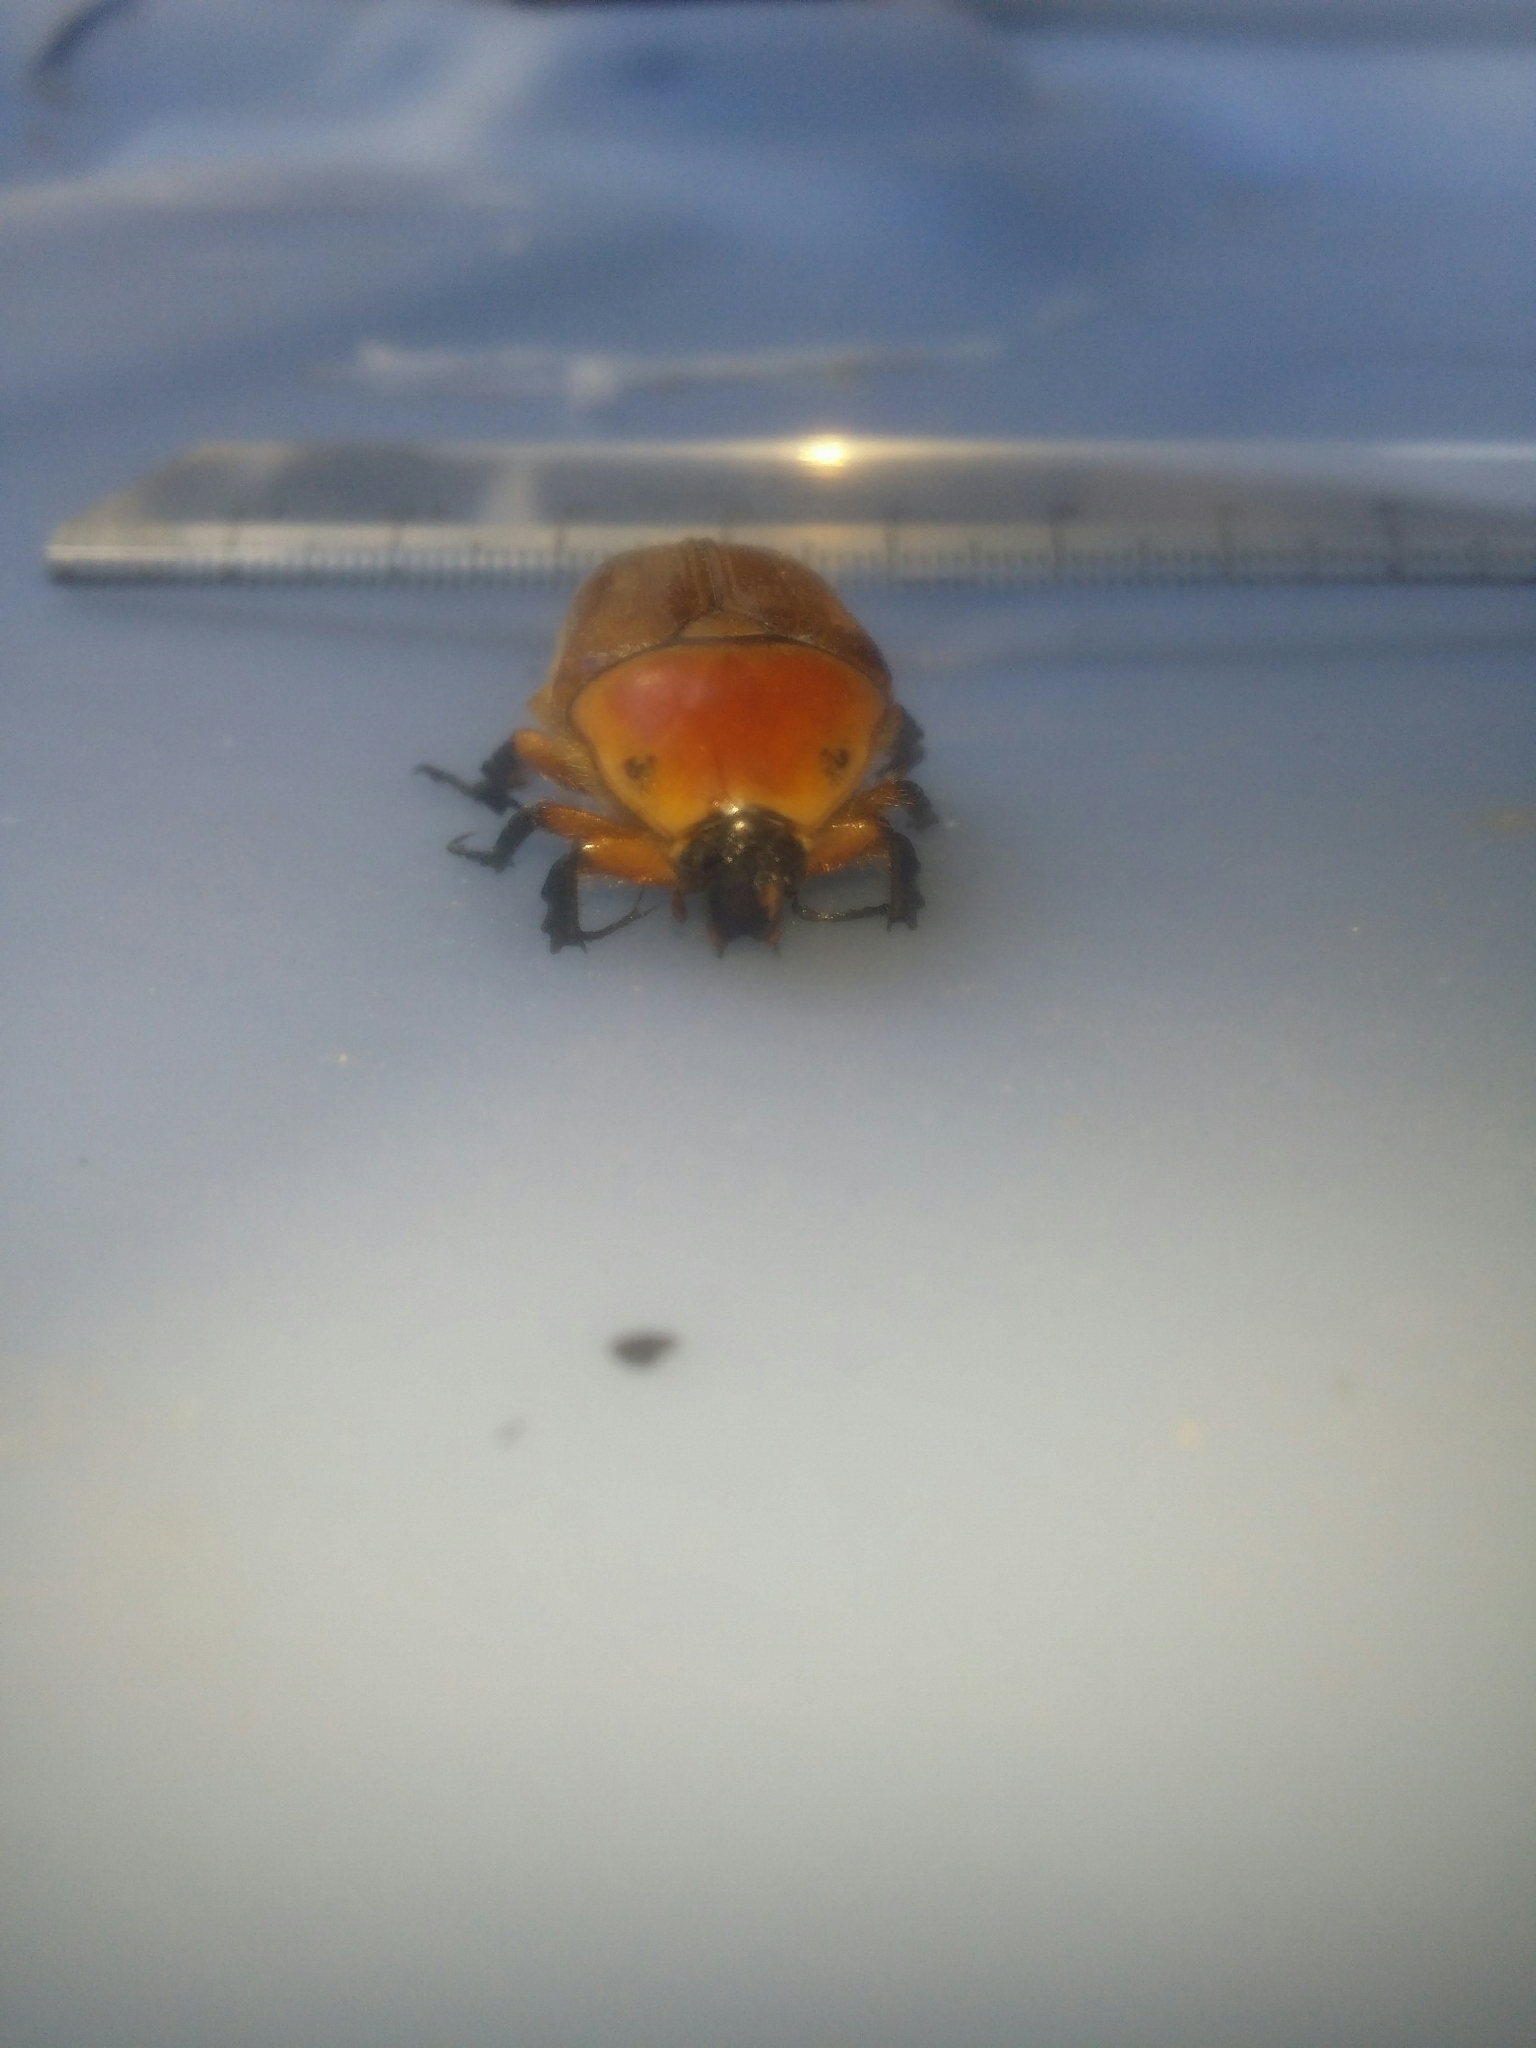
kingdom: Animalia
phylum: Arthropoda
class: Insecta
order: Coleoptera
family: Scarabaeidae
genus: Aphanesthes
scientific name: Aphanesthes succinea
